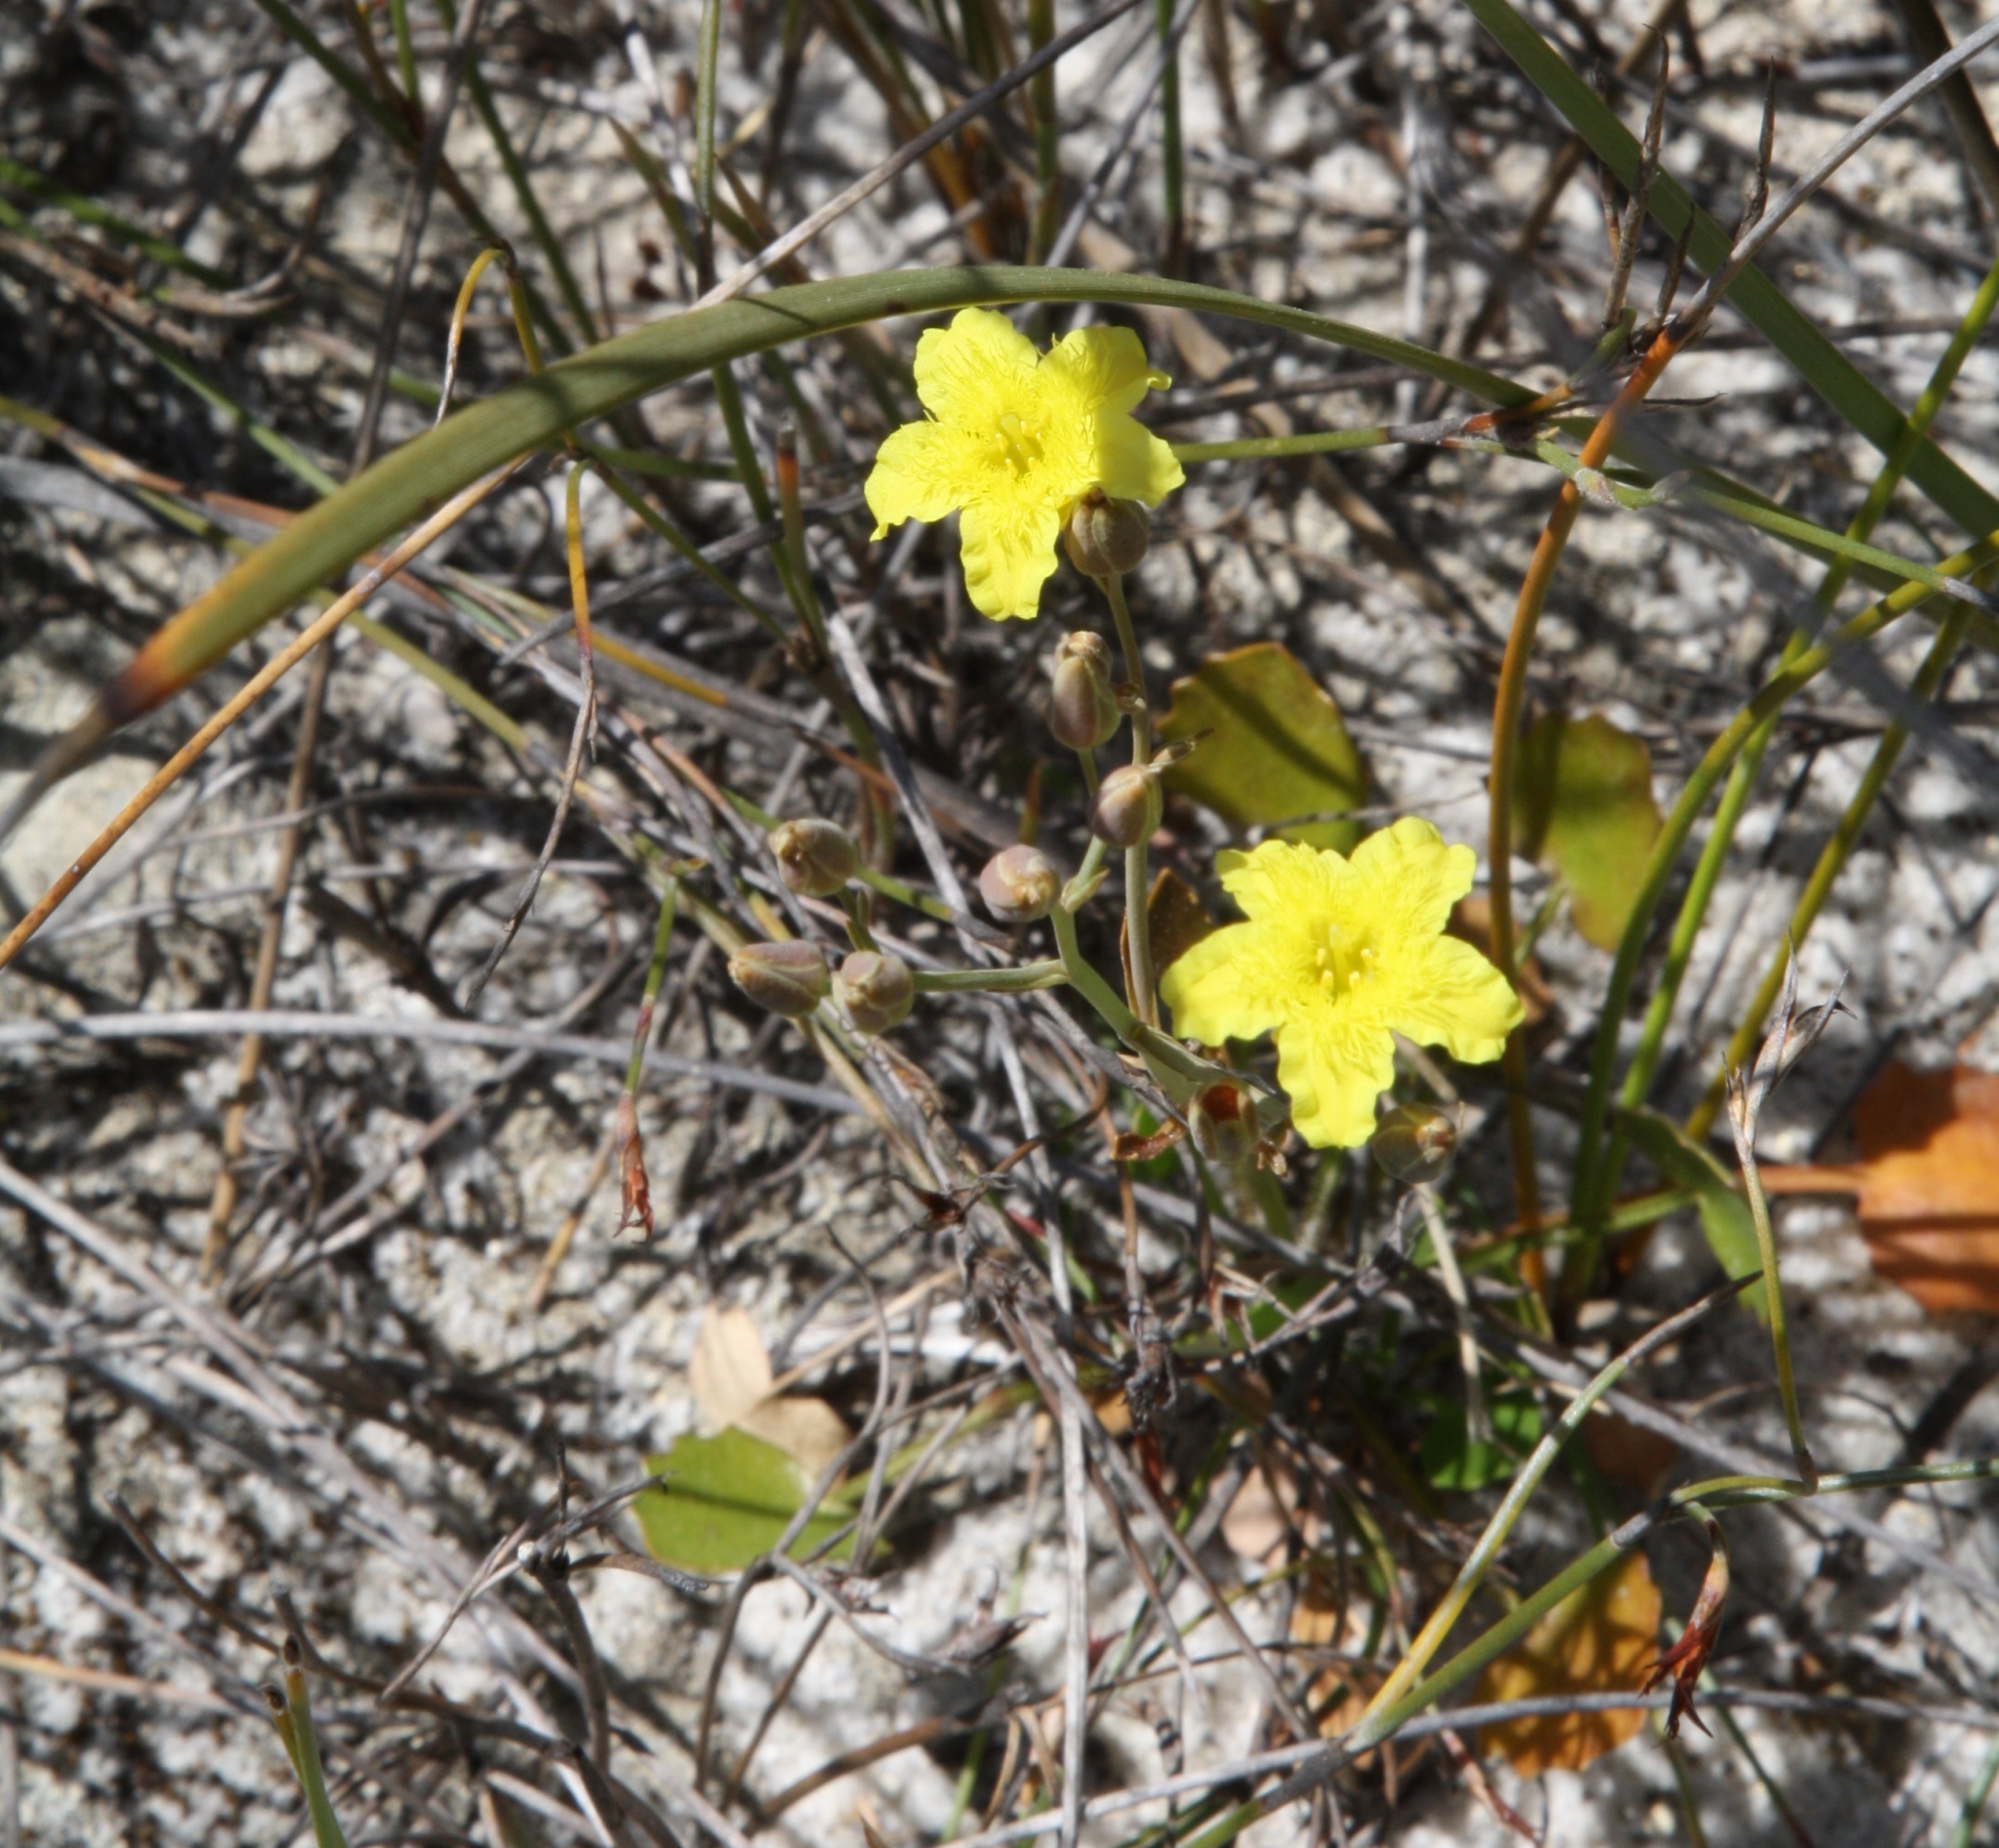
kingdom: Plantae
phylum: Tracheophyta
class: Magnoliopsida
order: Asterales
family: Menyanthaceae
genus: Ornduffia
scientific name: Ornduffia parnassifolia
